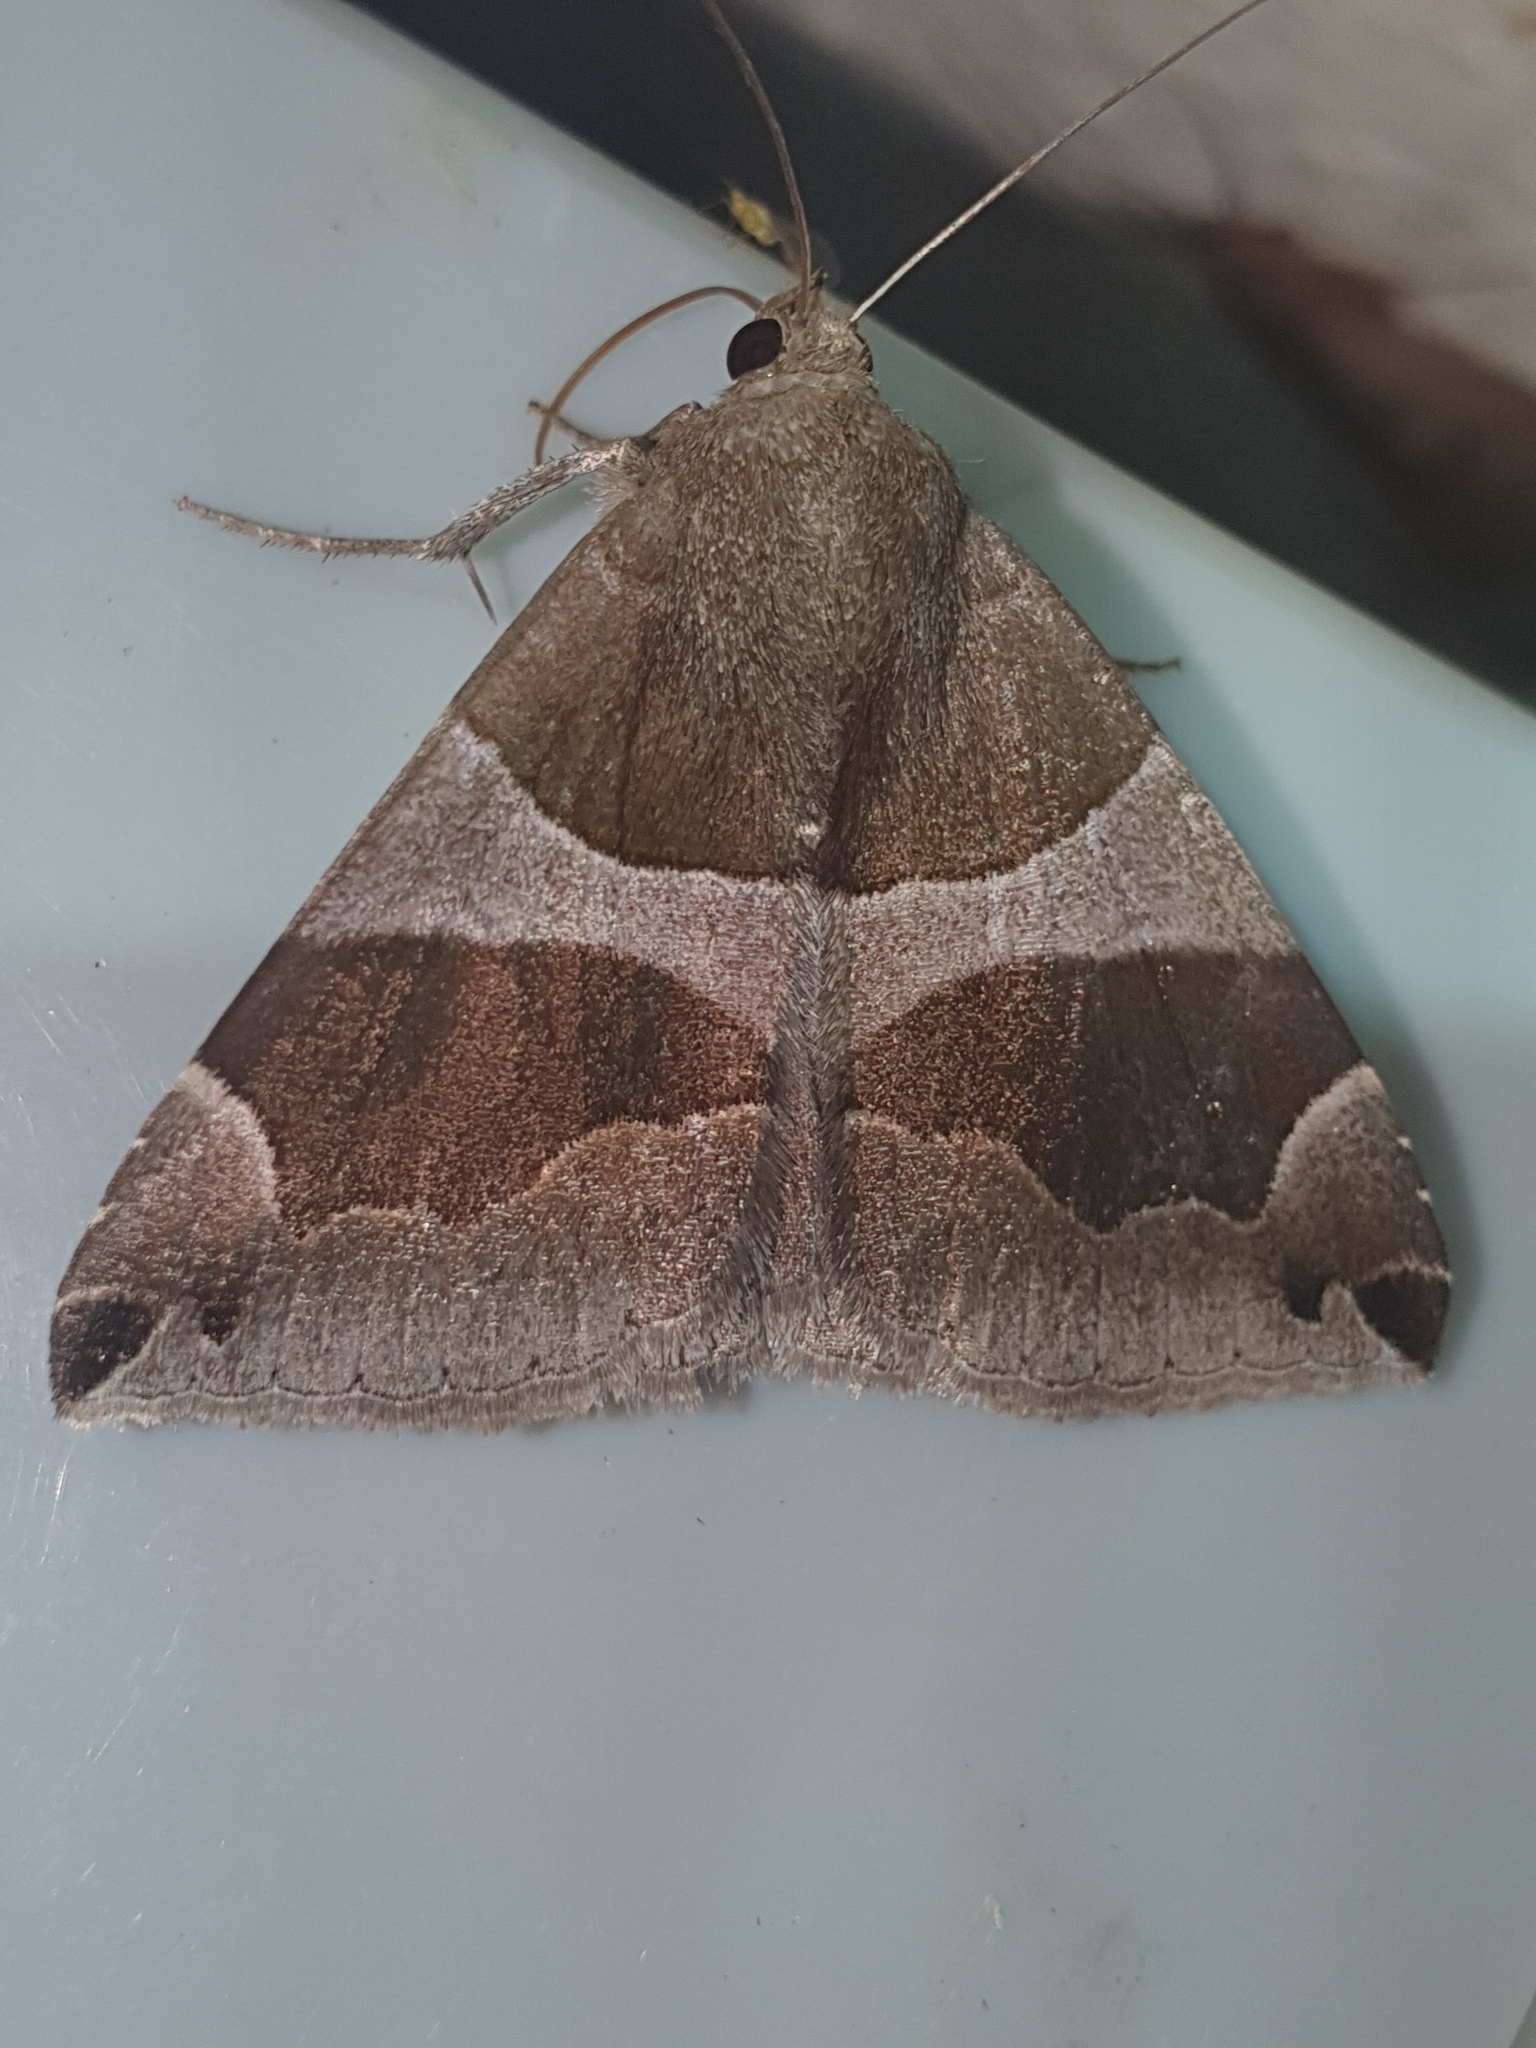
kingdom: Animalia
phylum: Arthropoda
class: Insecta
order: Lepidoptera
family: Erebidae
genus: Dysgonia
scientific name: Dysgonia algira
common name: Passenger
